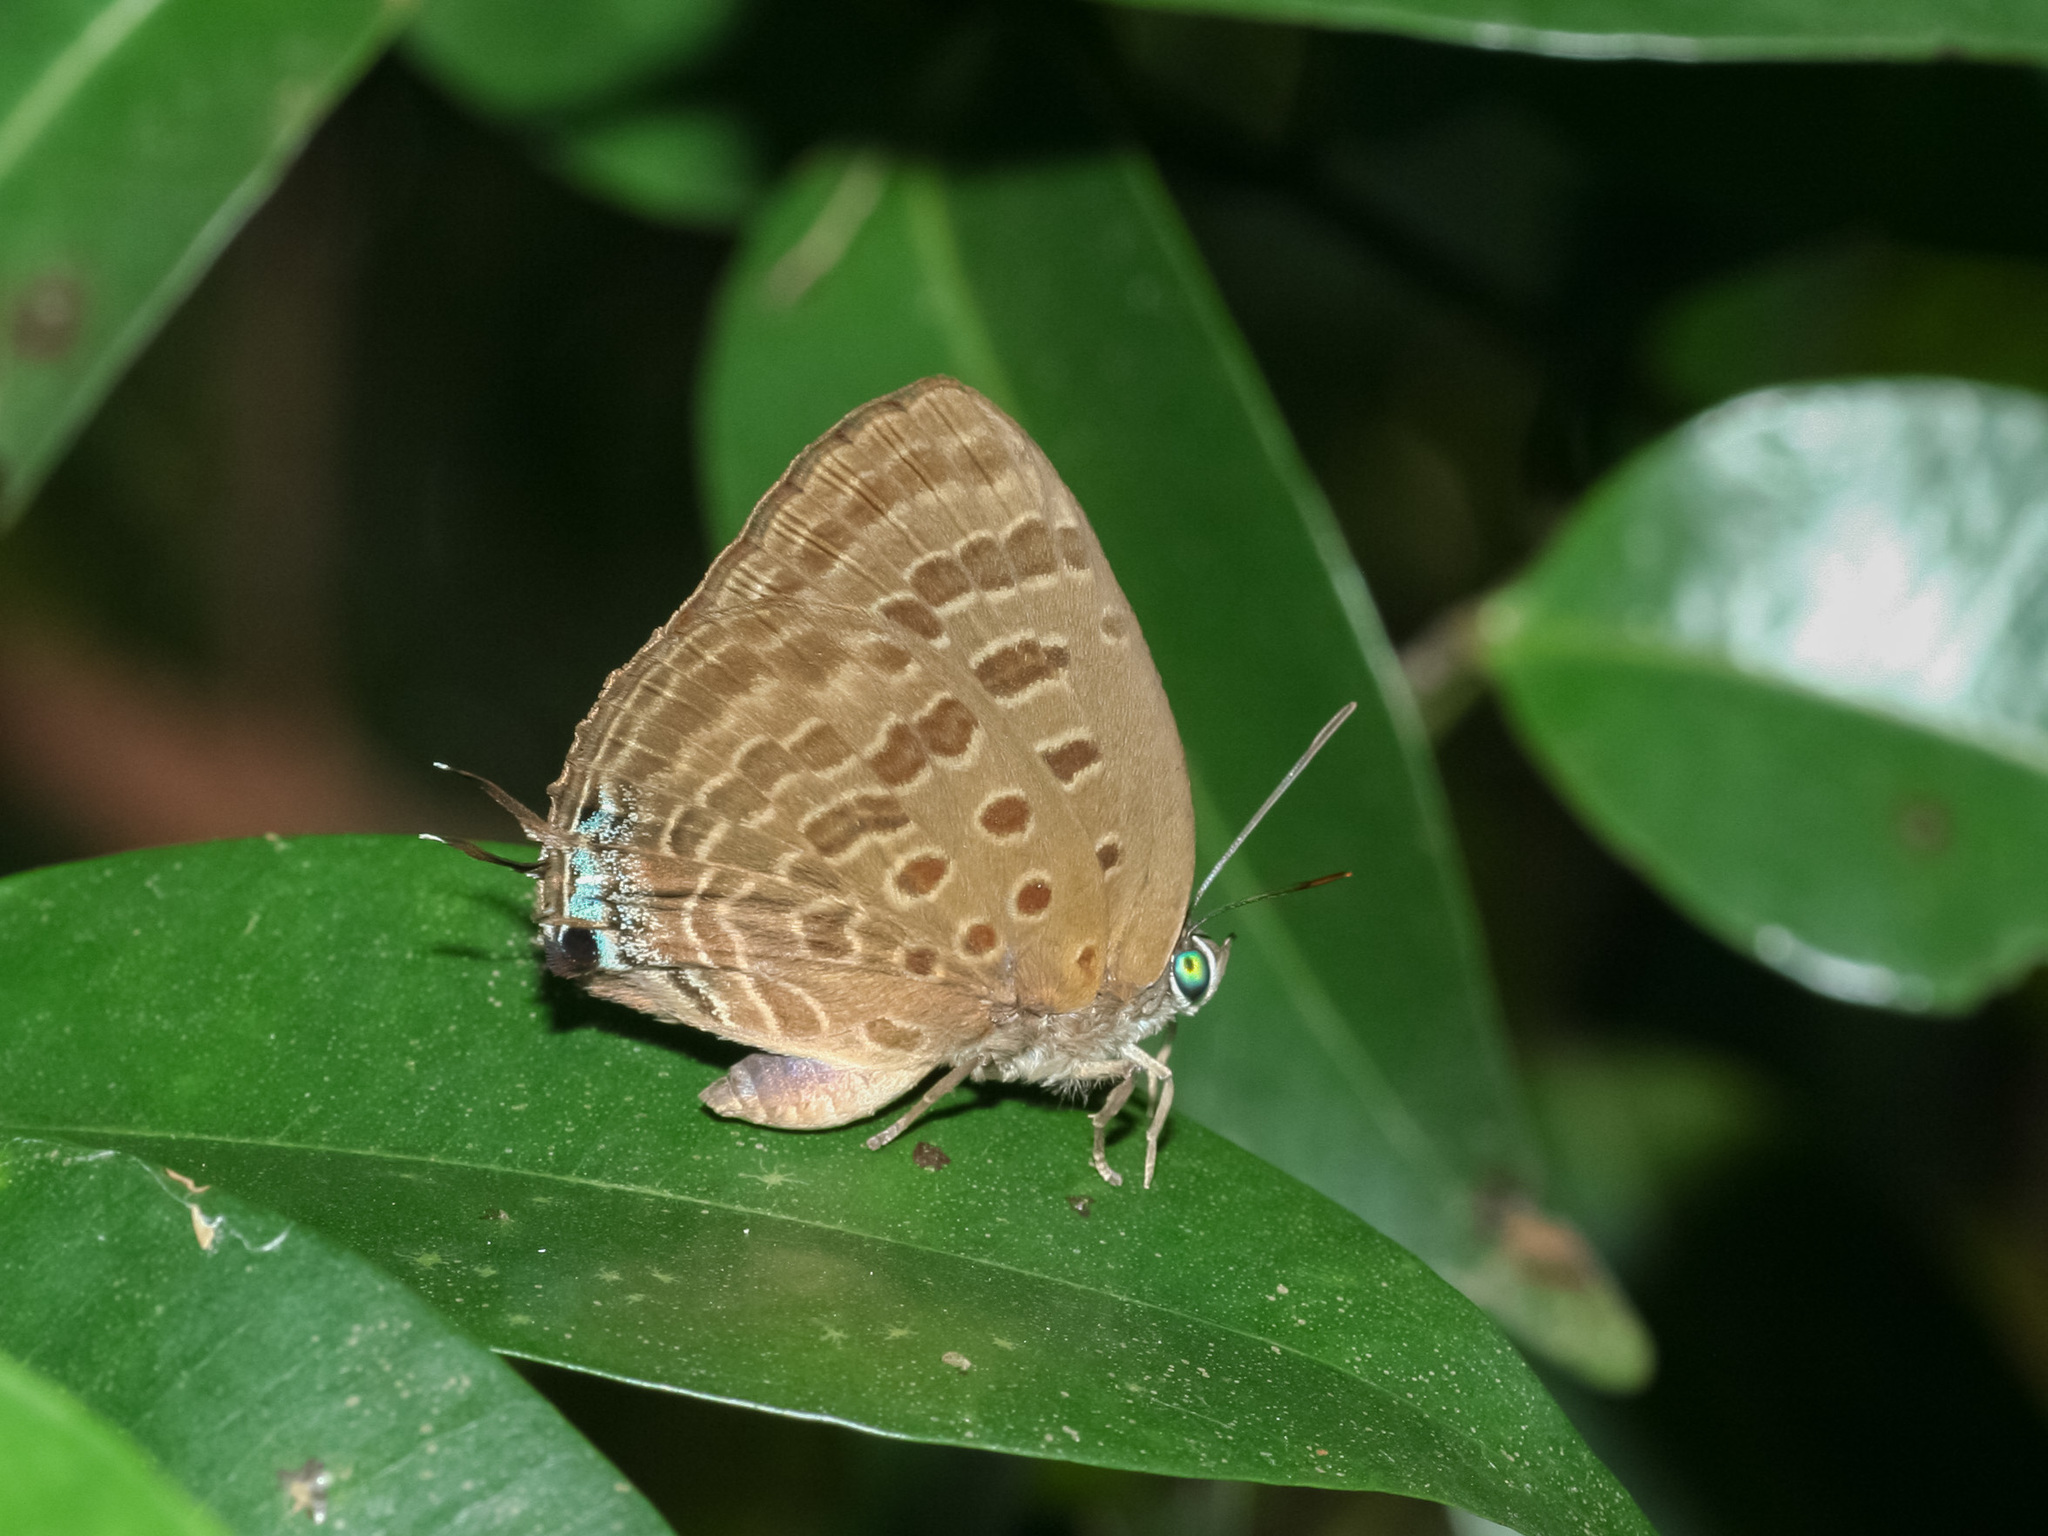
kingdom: Animalia
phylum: Arthropoda
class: Insecta
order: Lepidoptera
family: Lycaenidae
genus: Arhopala
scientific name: Arhopala athada
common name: Vinous oakblue
